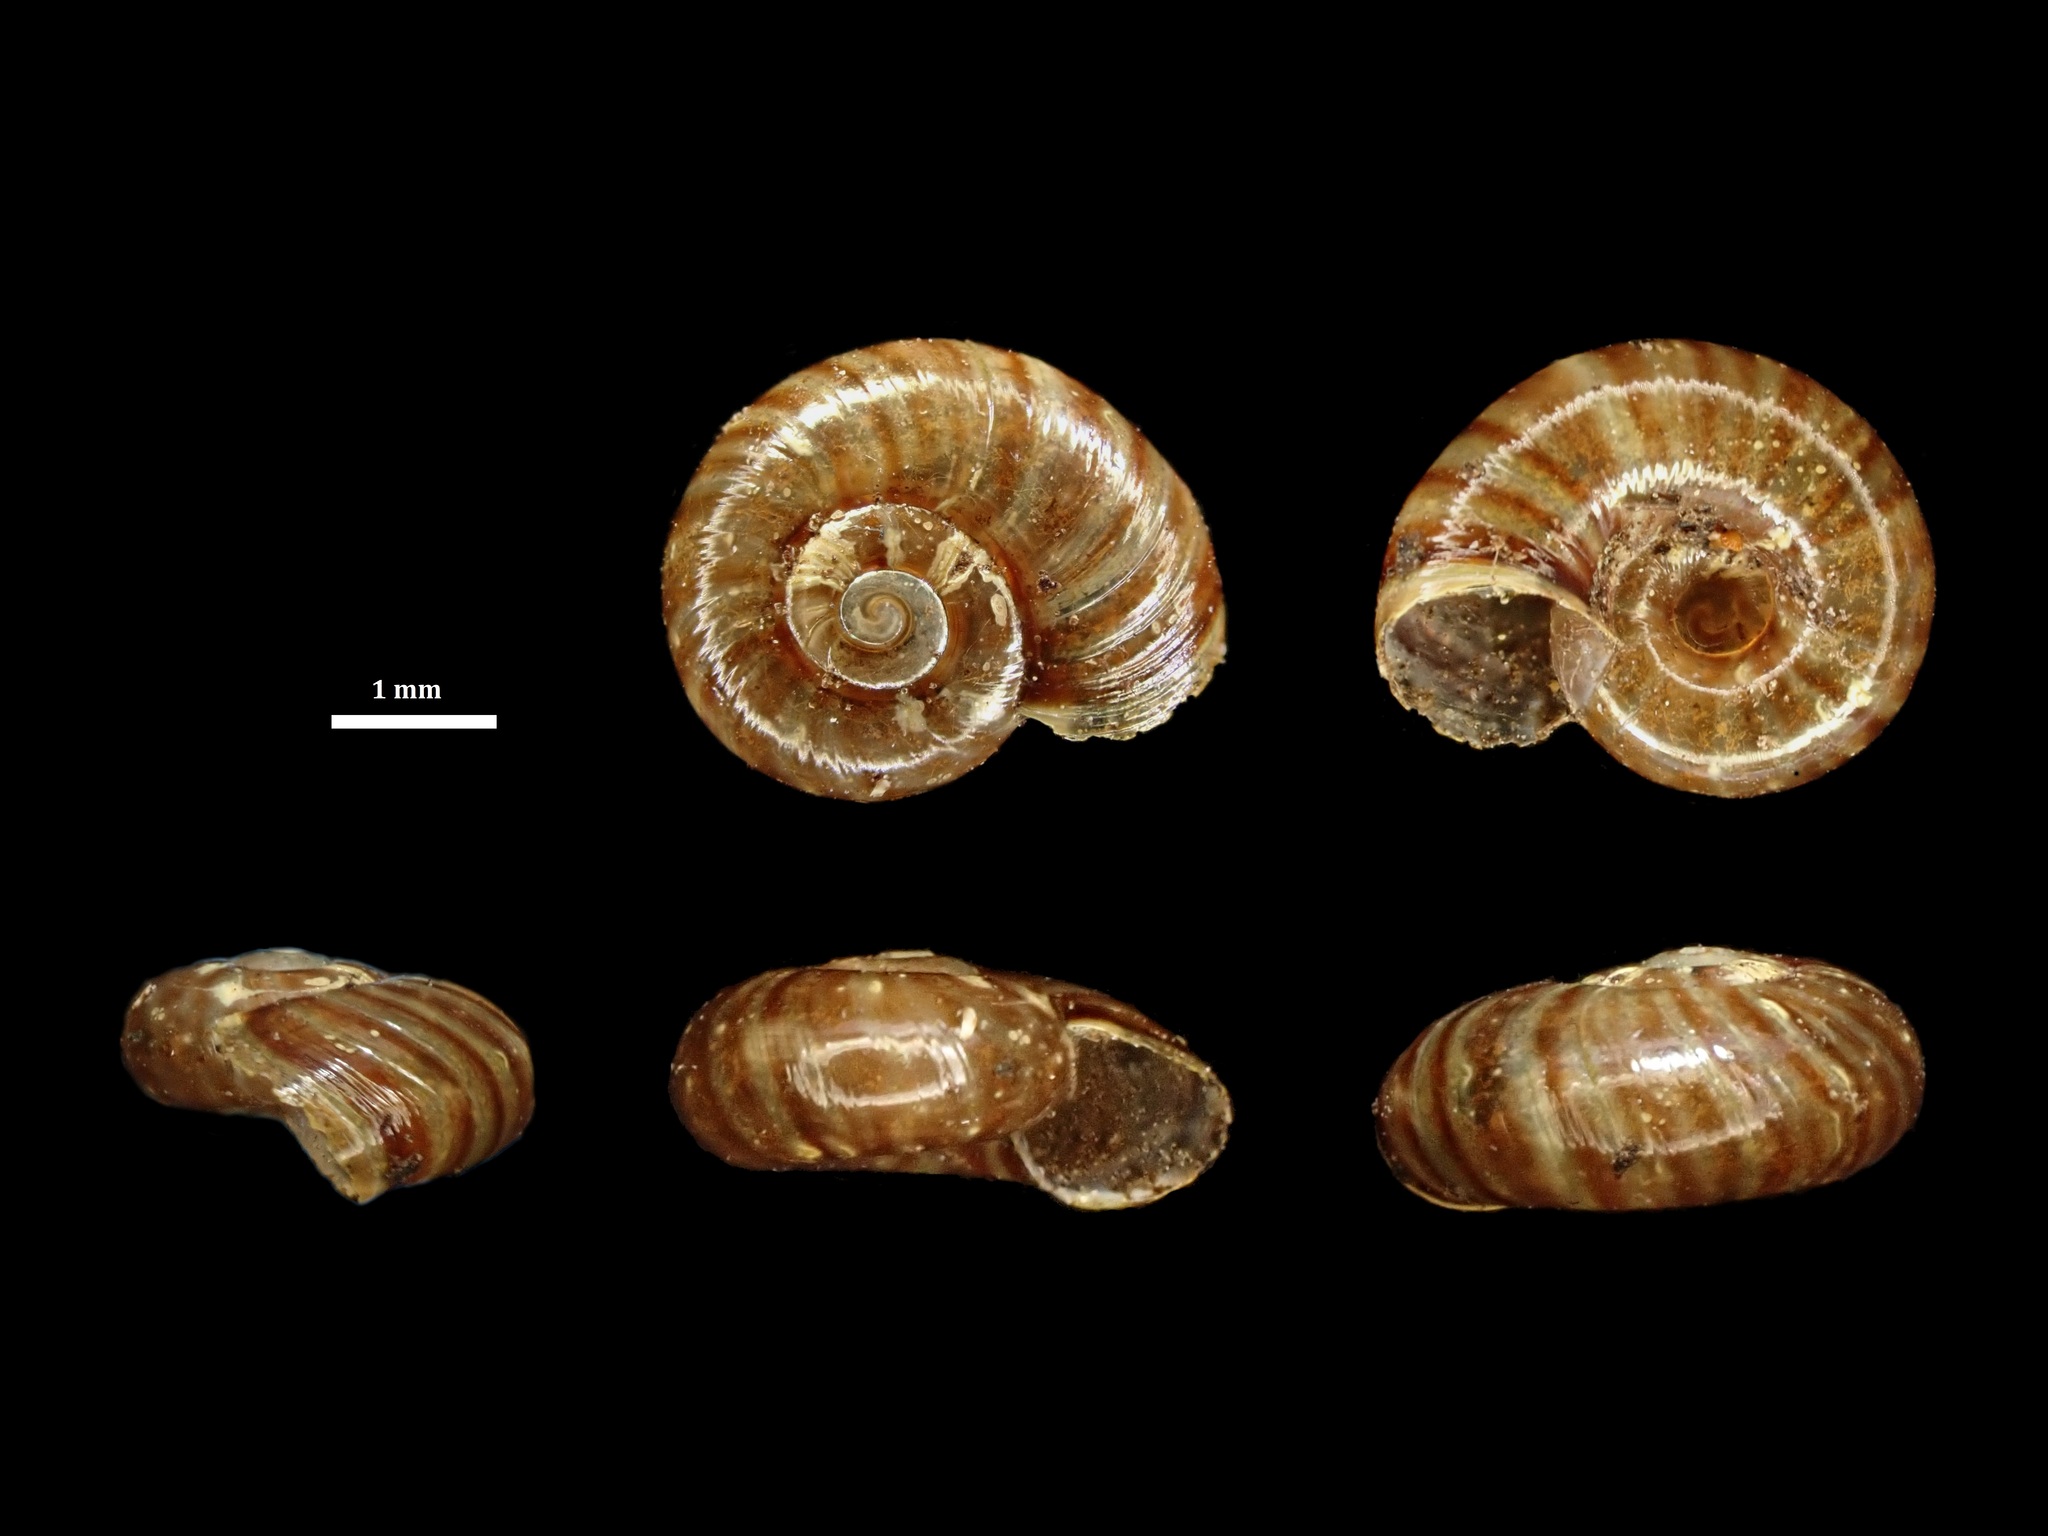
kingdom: Animalia
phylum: Mollusca
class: Gastropoda
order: Stylommatophora
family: Rhytididae
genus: Delos
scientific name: Delos coresia
